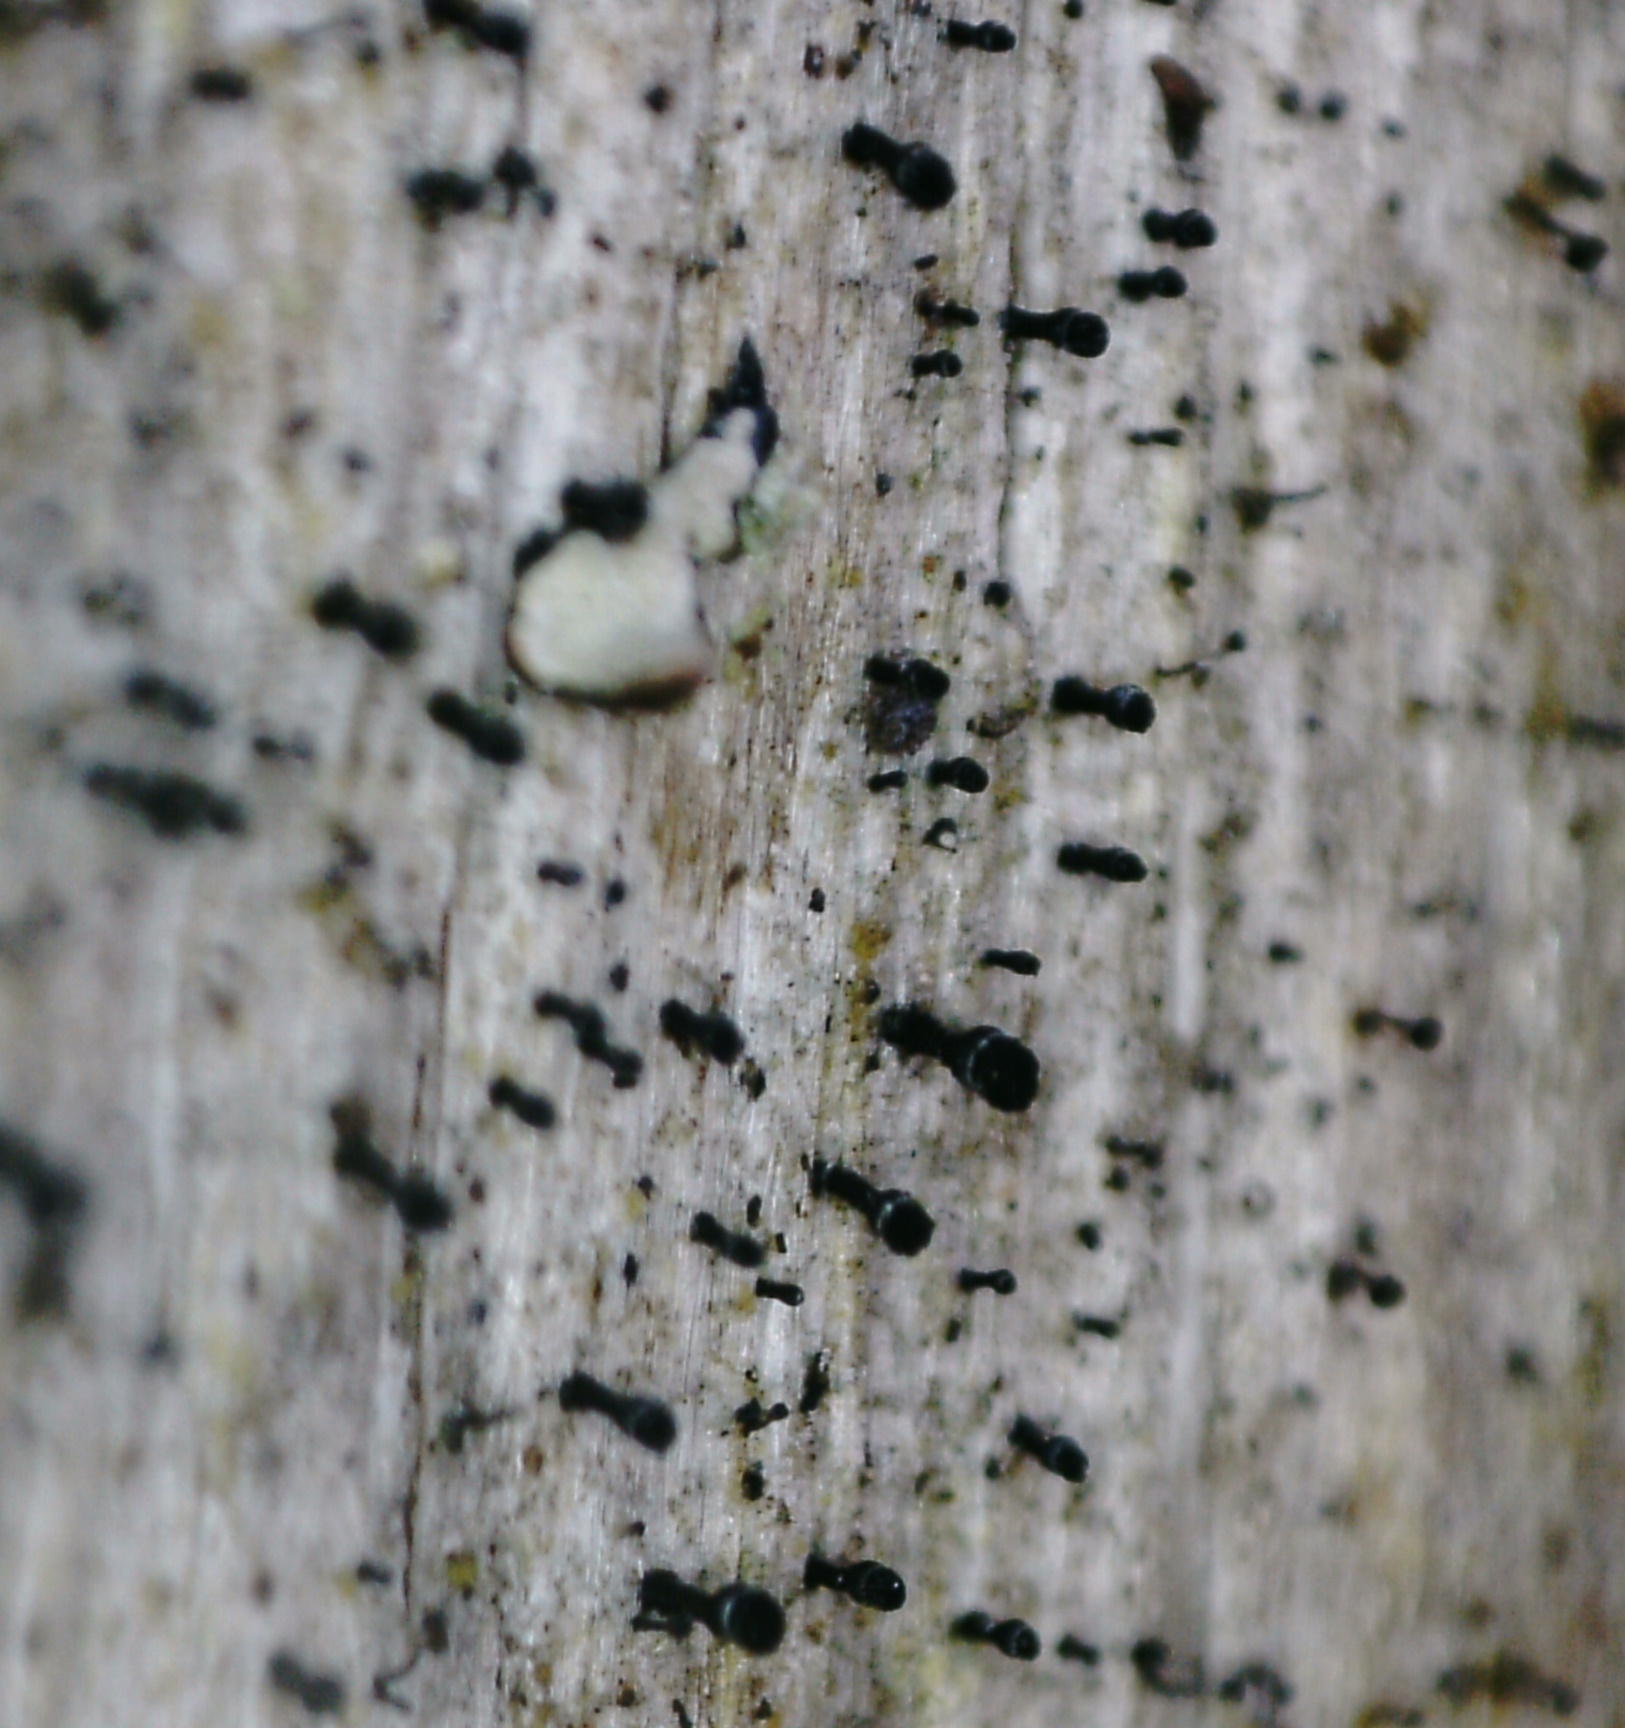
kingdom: Fungi
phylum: Ascomycota
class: Lecanoromycetes
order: Caliciales
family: Caliciaceae
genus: Calicium
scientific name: Calicium glaucellum
